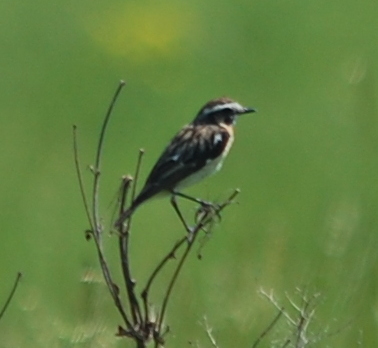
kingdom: Animalia
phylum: Chordata
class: Aves
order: Passeriformes
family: Muscicapidae
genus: Saxicola
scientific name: Saxicola rubetra
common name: Whinchat
